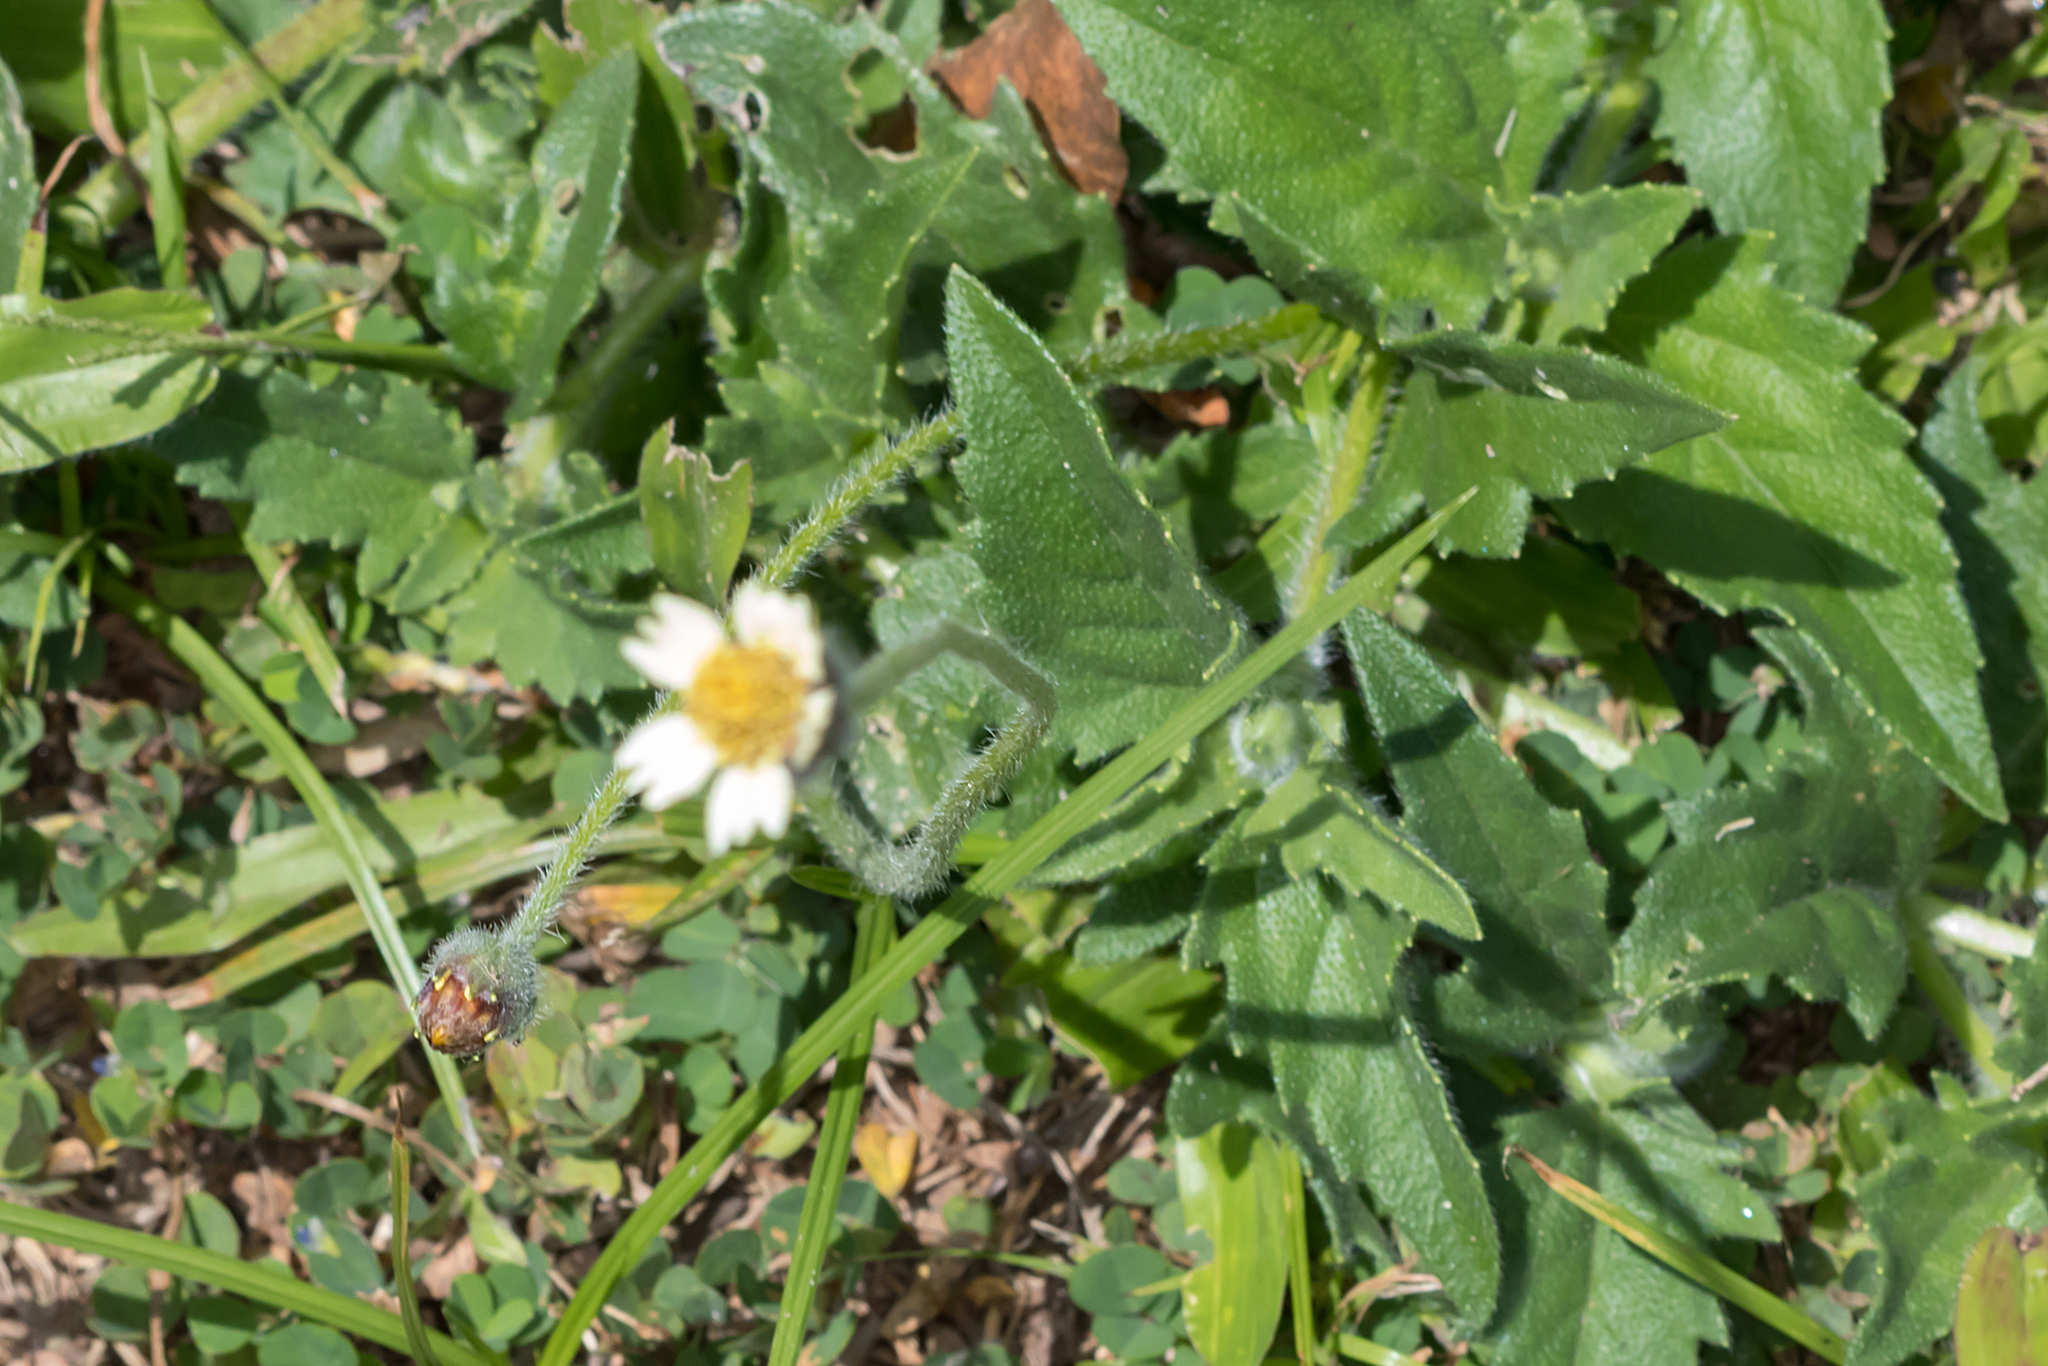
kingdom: Plantae
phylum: Tracheophyta
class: Magnoliopsida
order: Asterales
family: Asteraceae
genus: Tridax
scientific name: Tridax procumbens
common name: Coatbuttons
